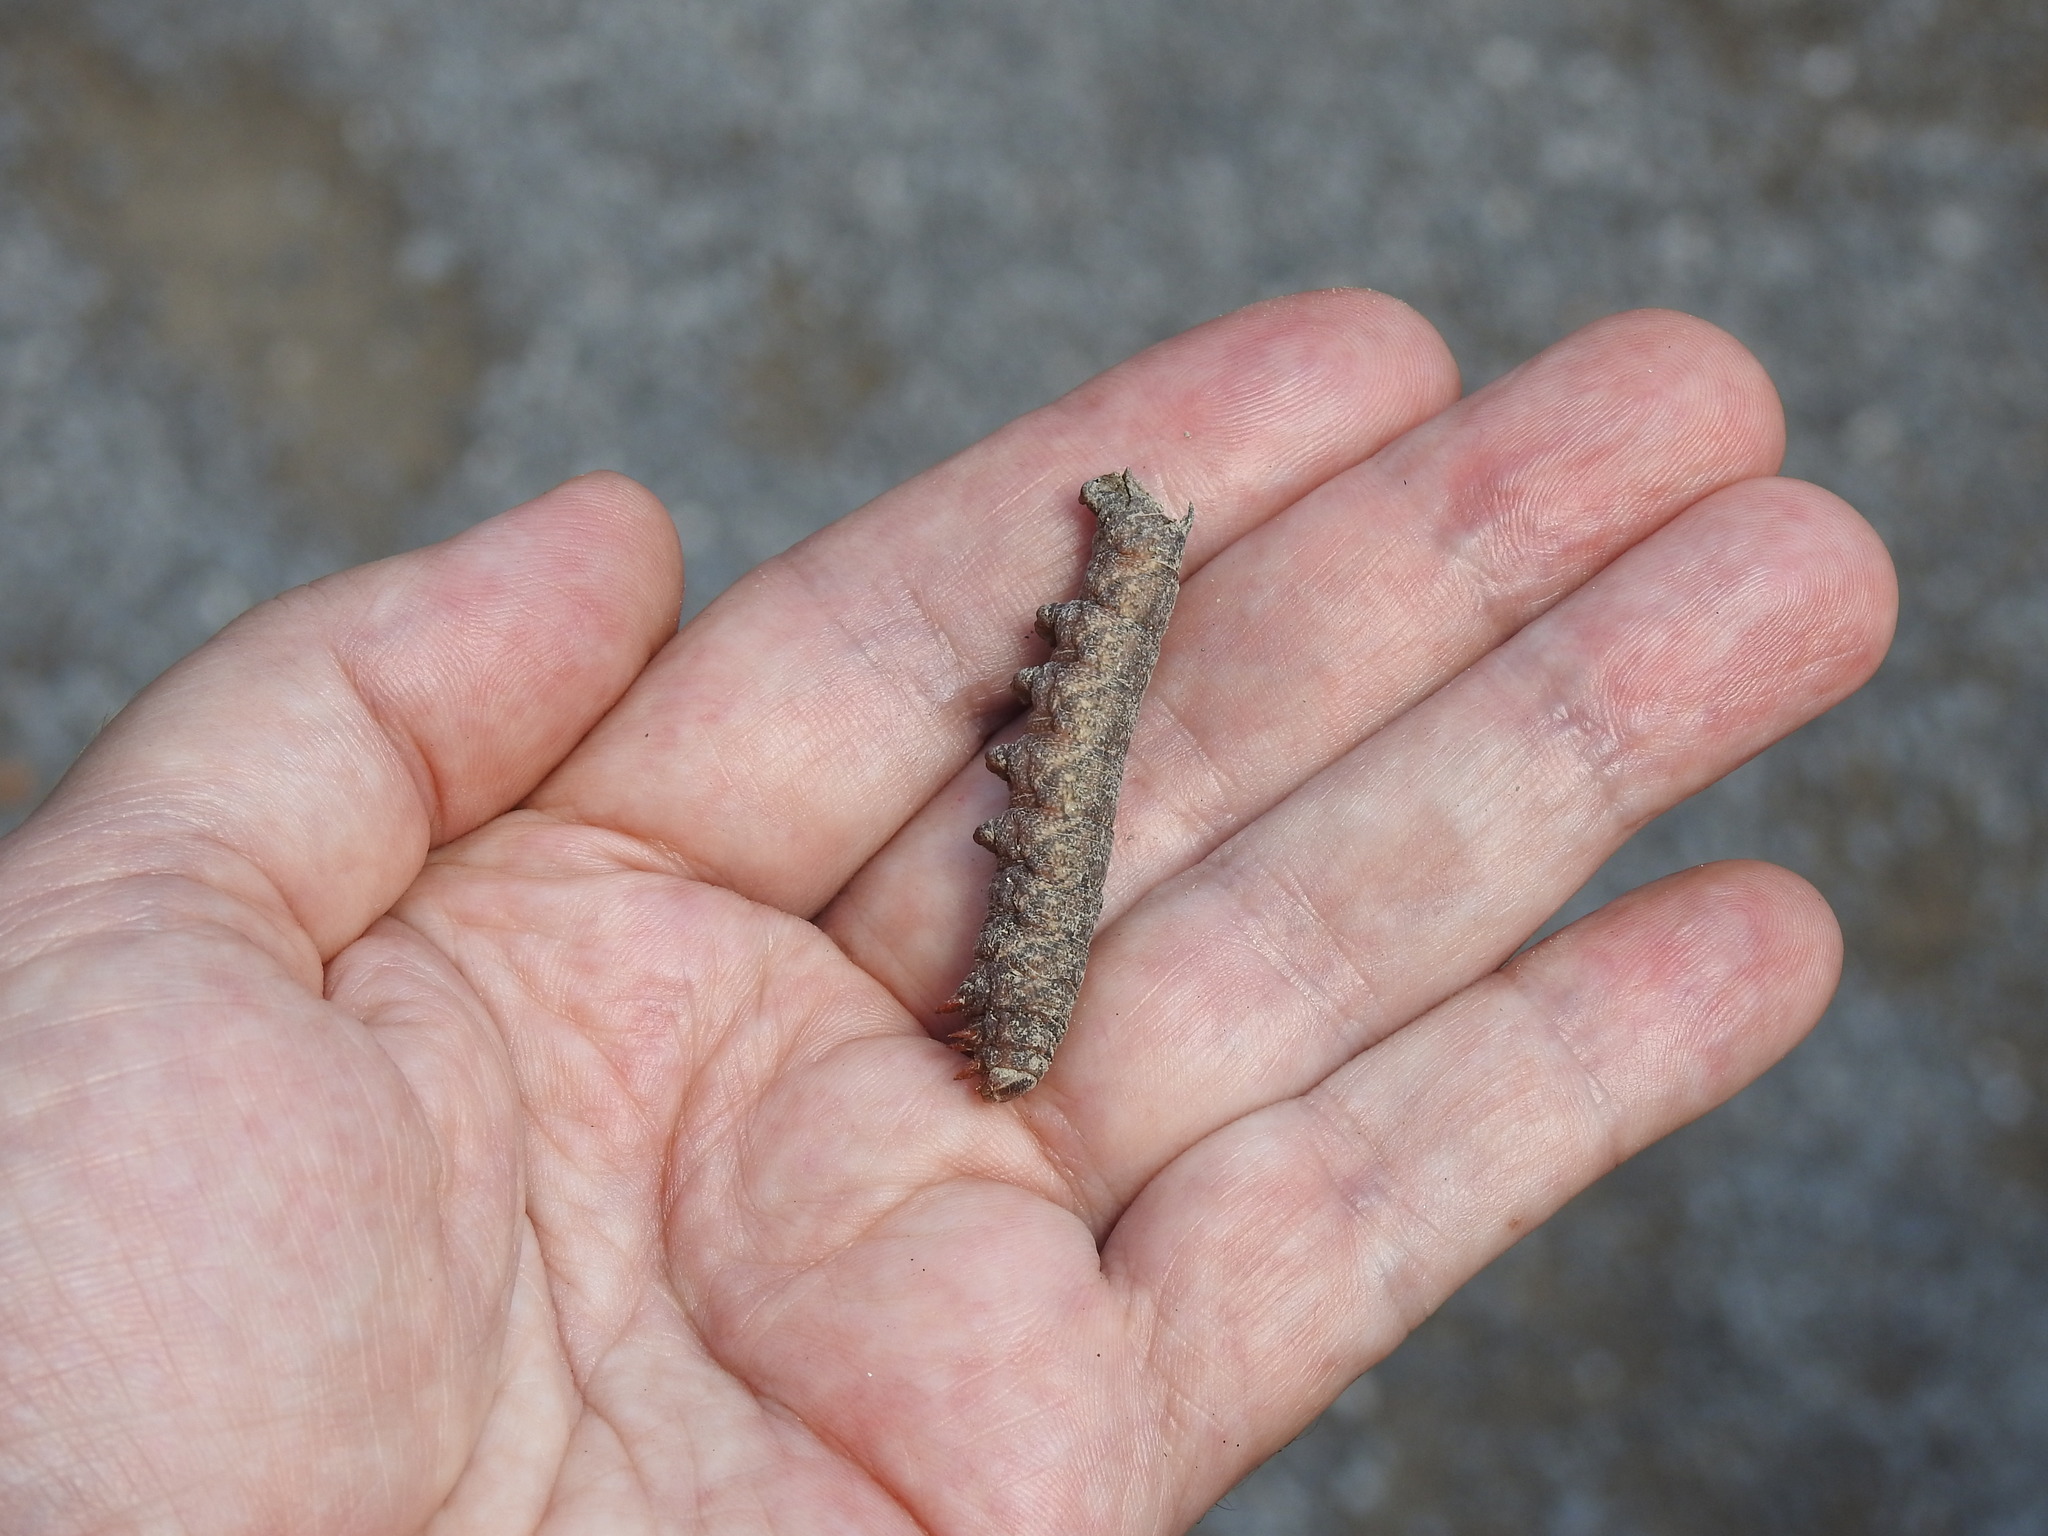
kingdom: Animalia
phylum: Arthropoda
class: Insecta
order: Lepidoptera
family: Sphingidae
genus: Amphion
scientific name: Amphion floridensis
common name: Nessus sphinx
